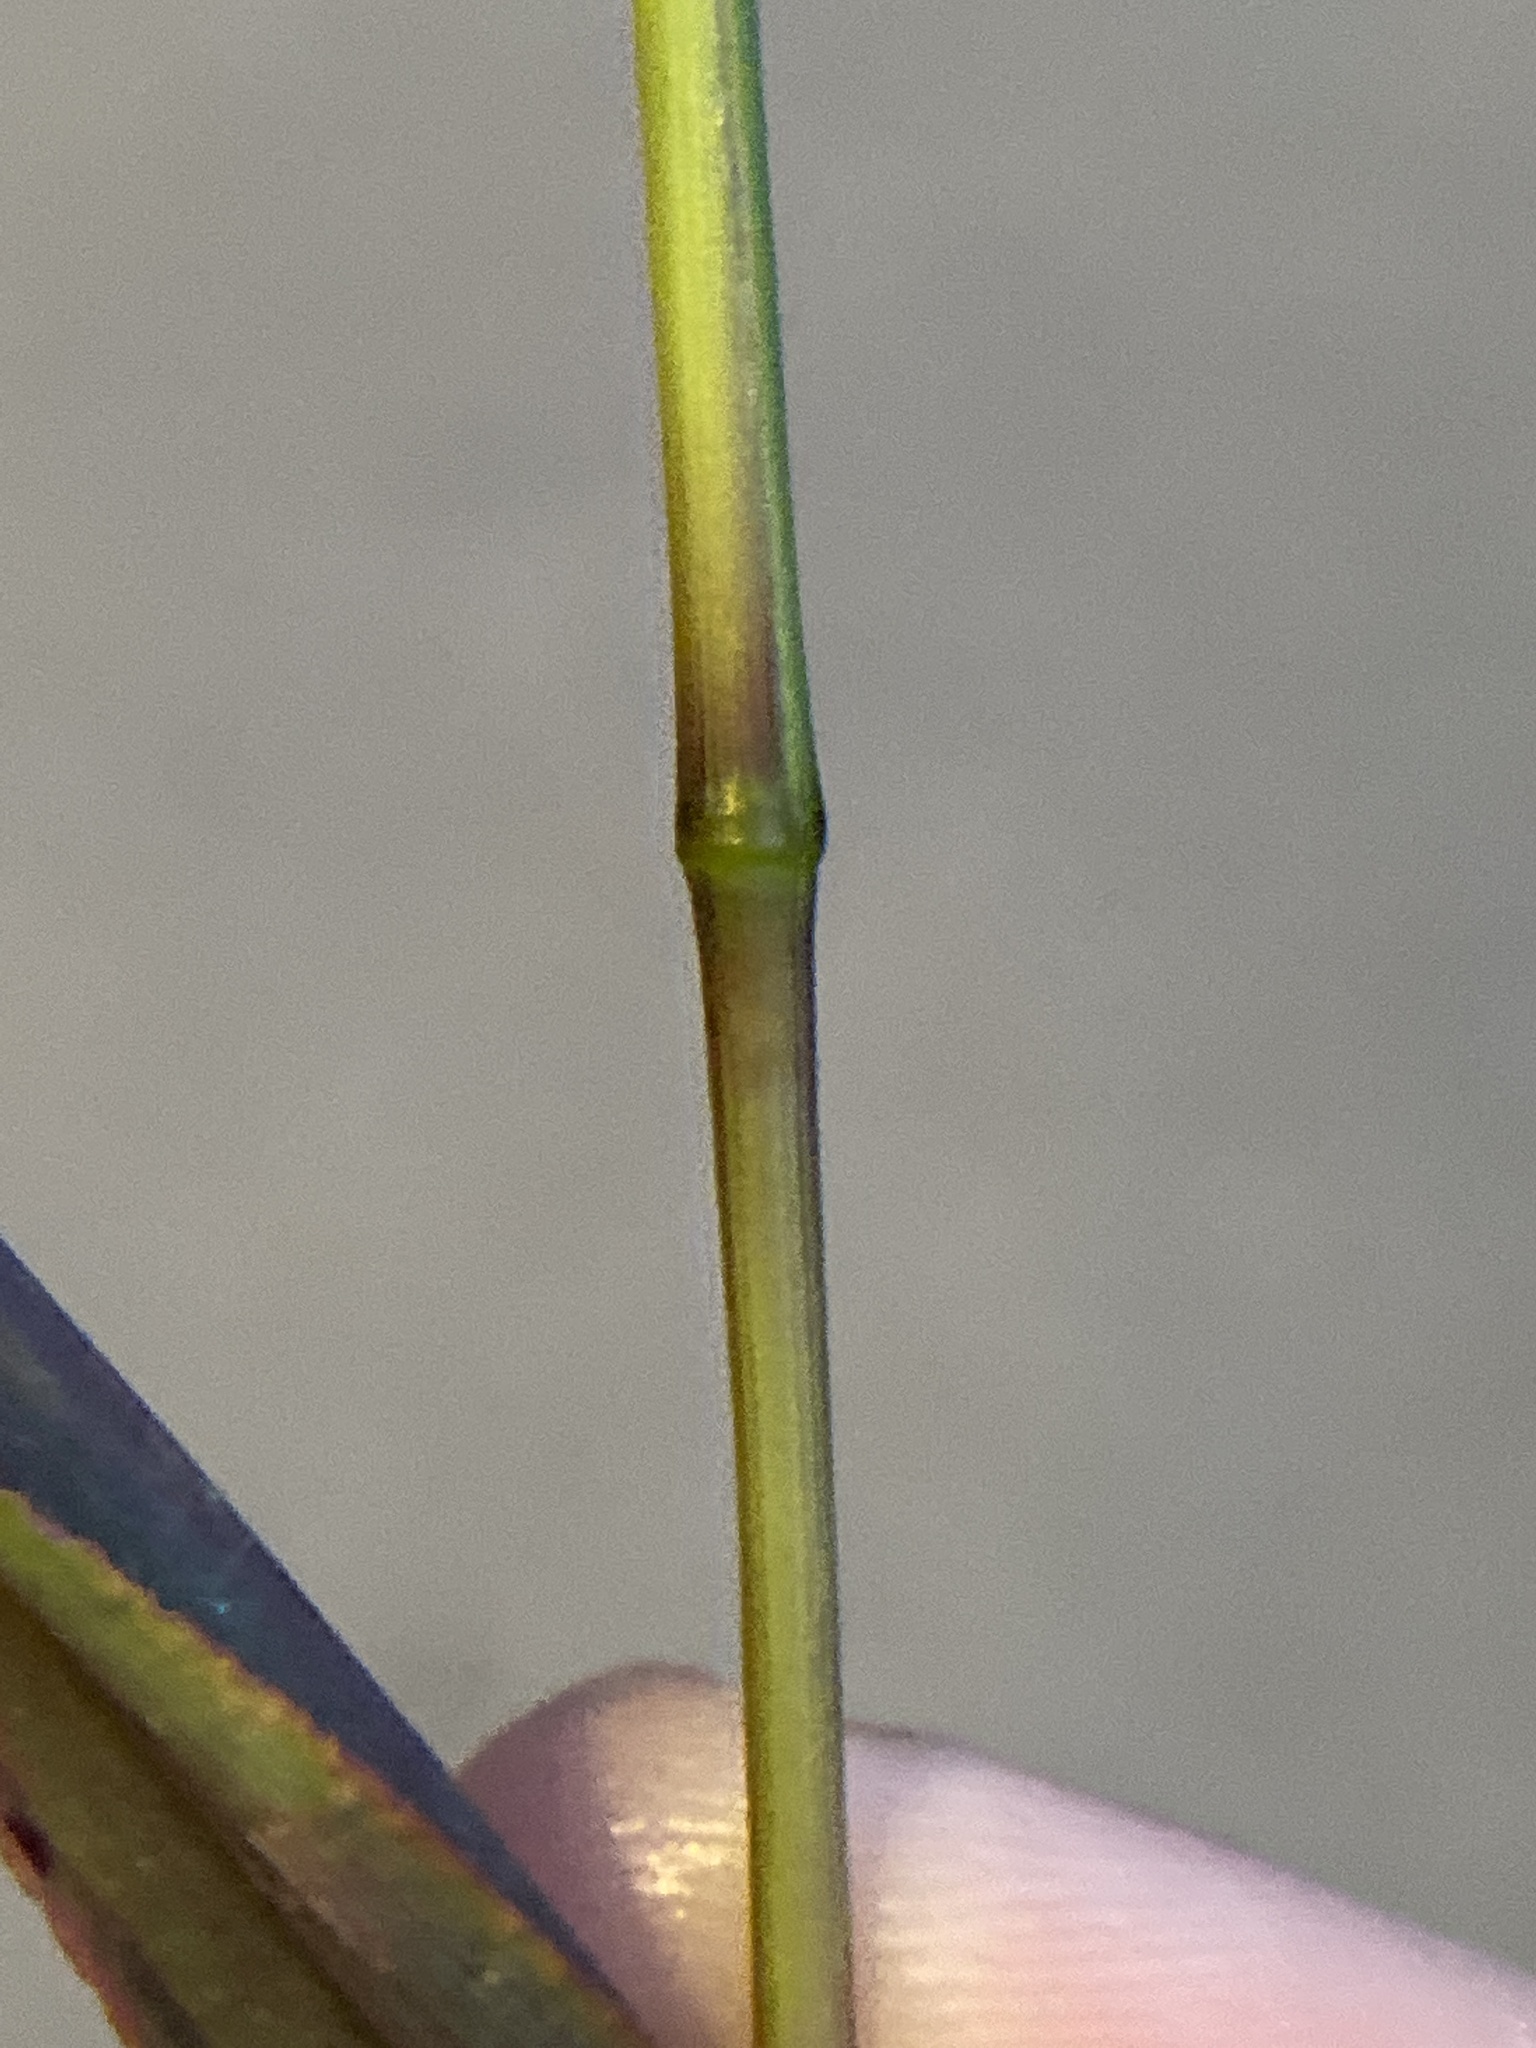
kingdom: Plantae
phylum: Tracheophyta
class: Liliopsida
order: Poales
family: Poaceae
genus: Setaria
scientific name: Setaria viridis
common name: Green bristlegrass
